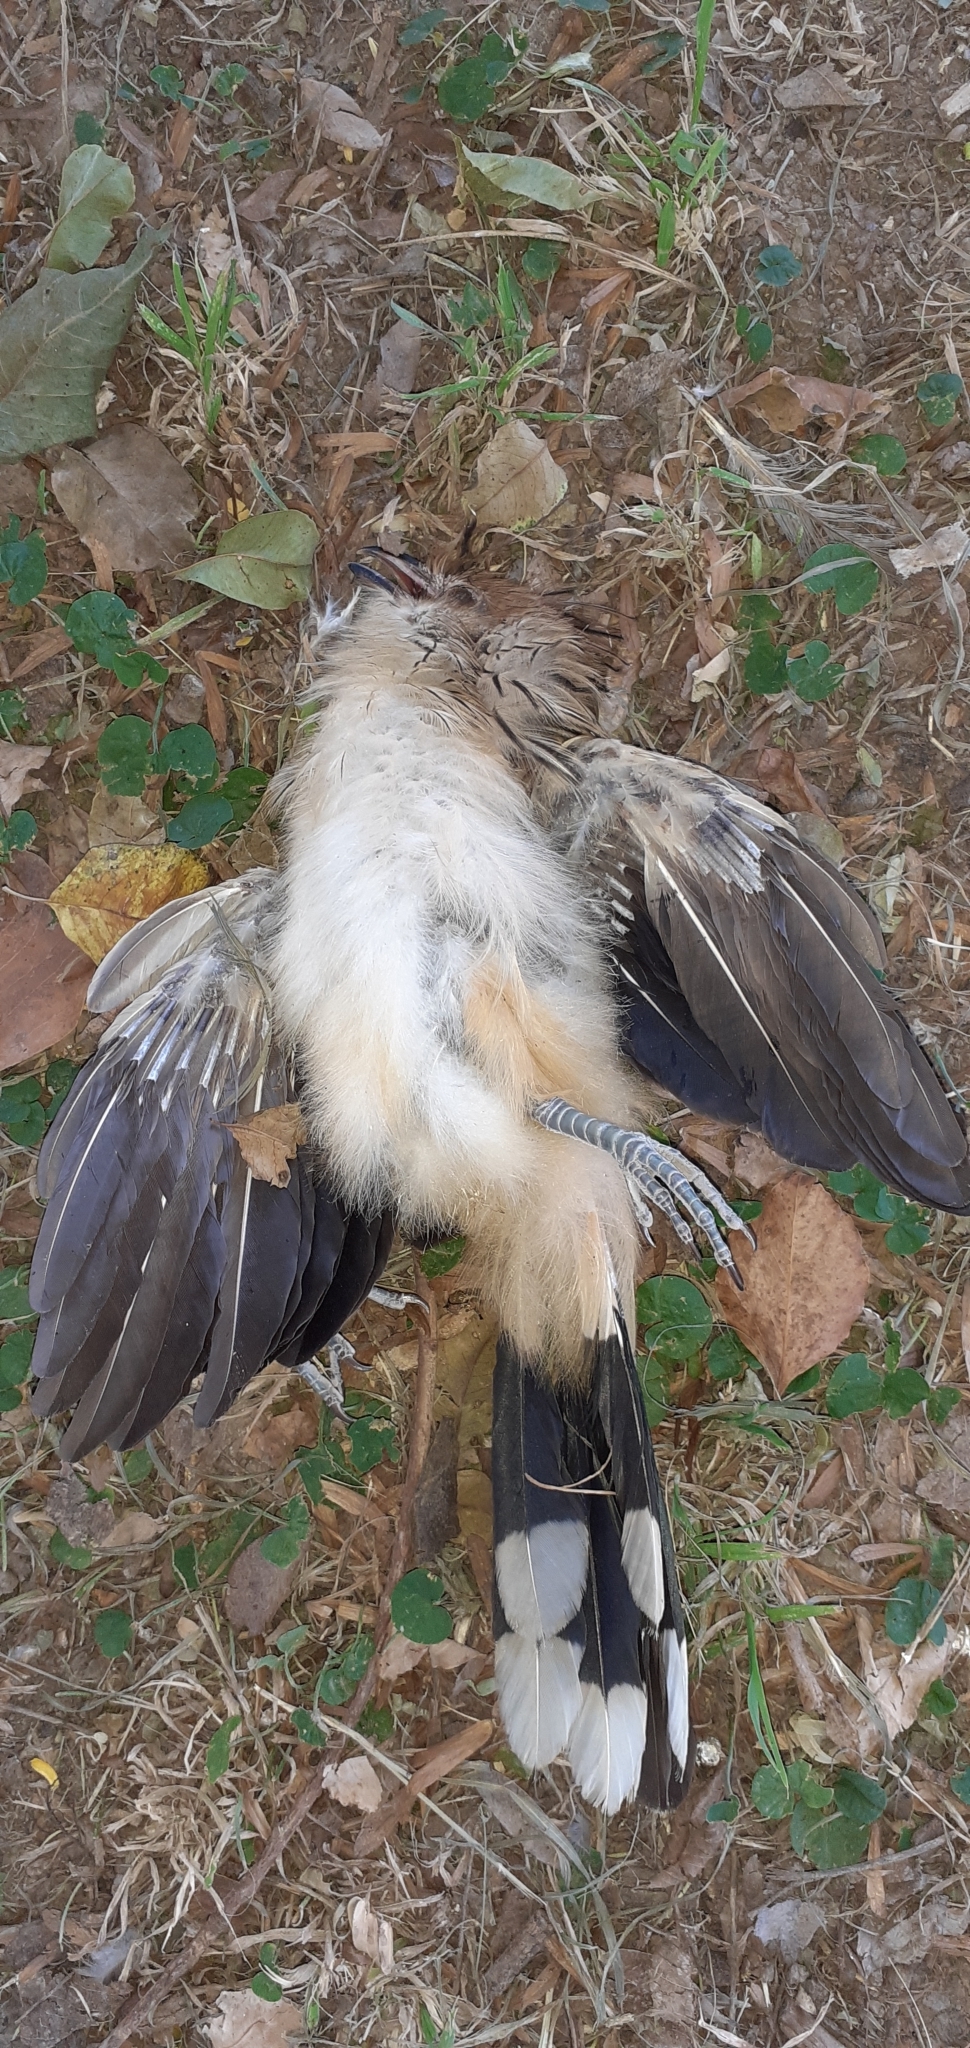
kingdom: Animalia
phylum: Chordata
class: Aves
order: Cuculiformes
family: Cuculidae
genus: Guira
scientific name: Guira guira
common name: Guira cuckoo
